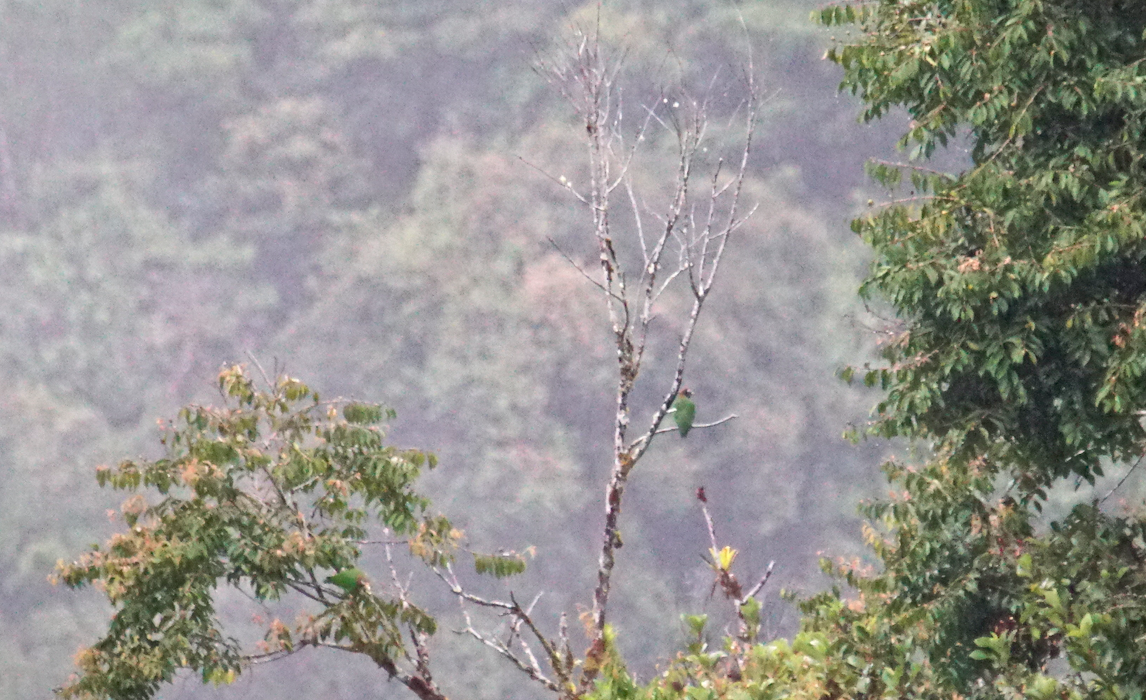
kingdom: Animalia
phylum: Chordata
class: Aves
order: Psittaciformes
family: Psittacidae
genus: Pionopsitta
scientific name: Pionopsitta haematotis
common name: Brown-hooded parrot
